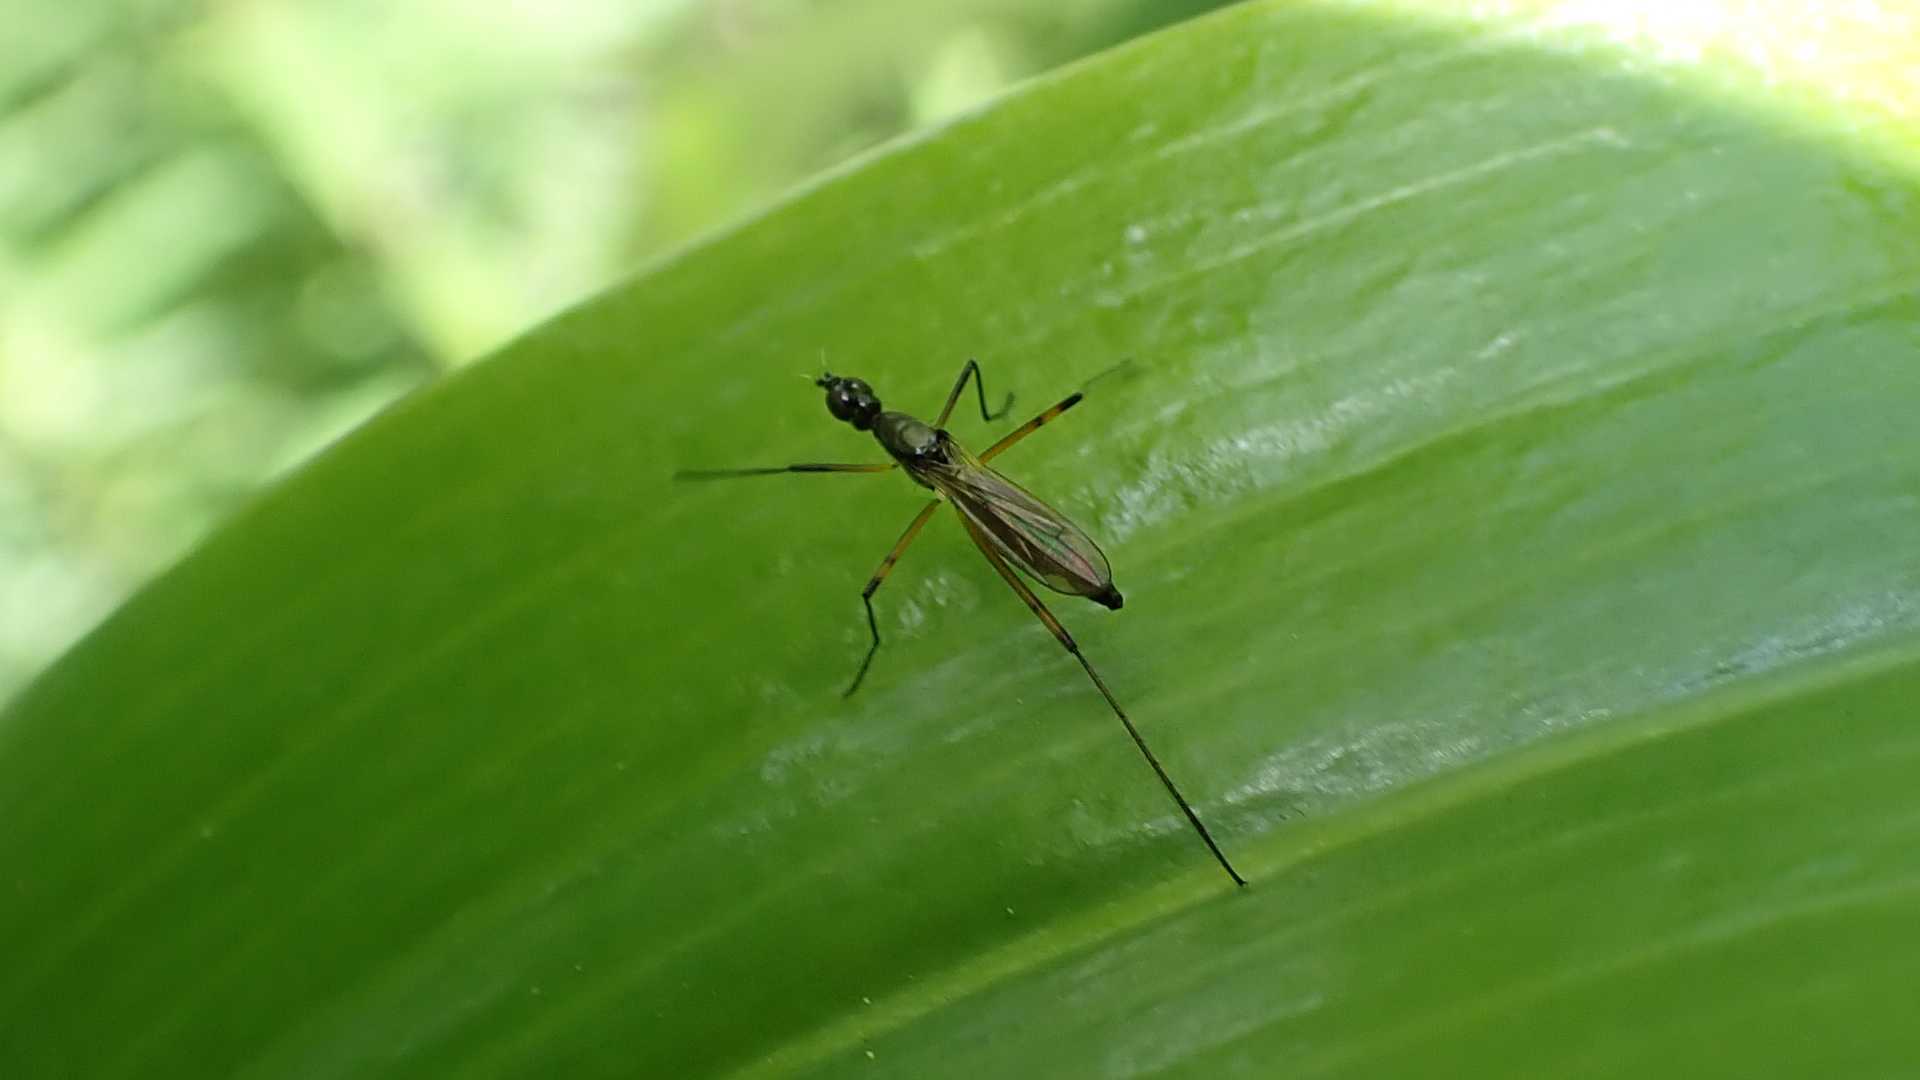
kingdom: Animalia
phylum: Arthropoda
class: Insecta
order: Diptera
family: Micropezidae
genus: Micropeza
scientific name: Micropeza corrigiolata
